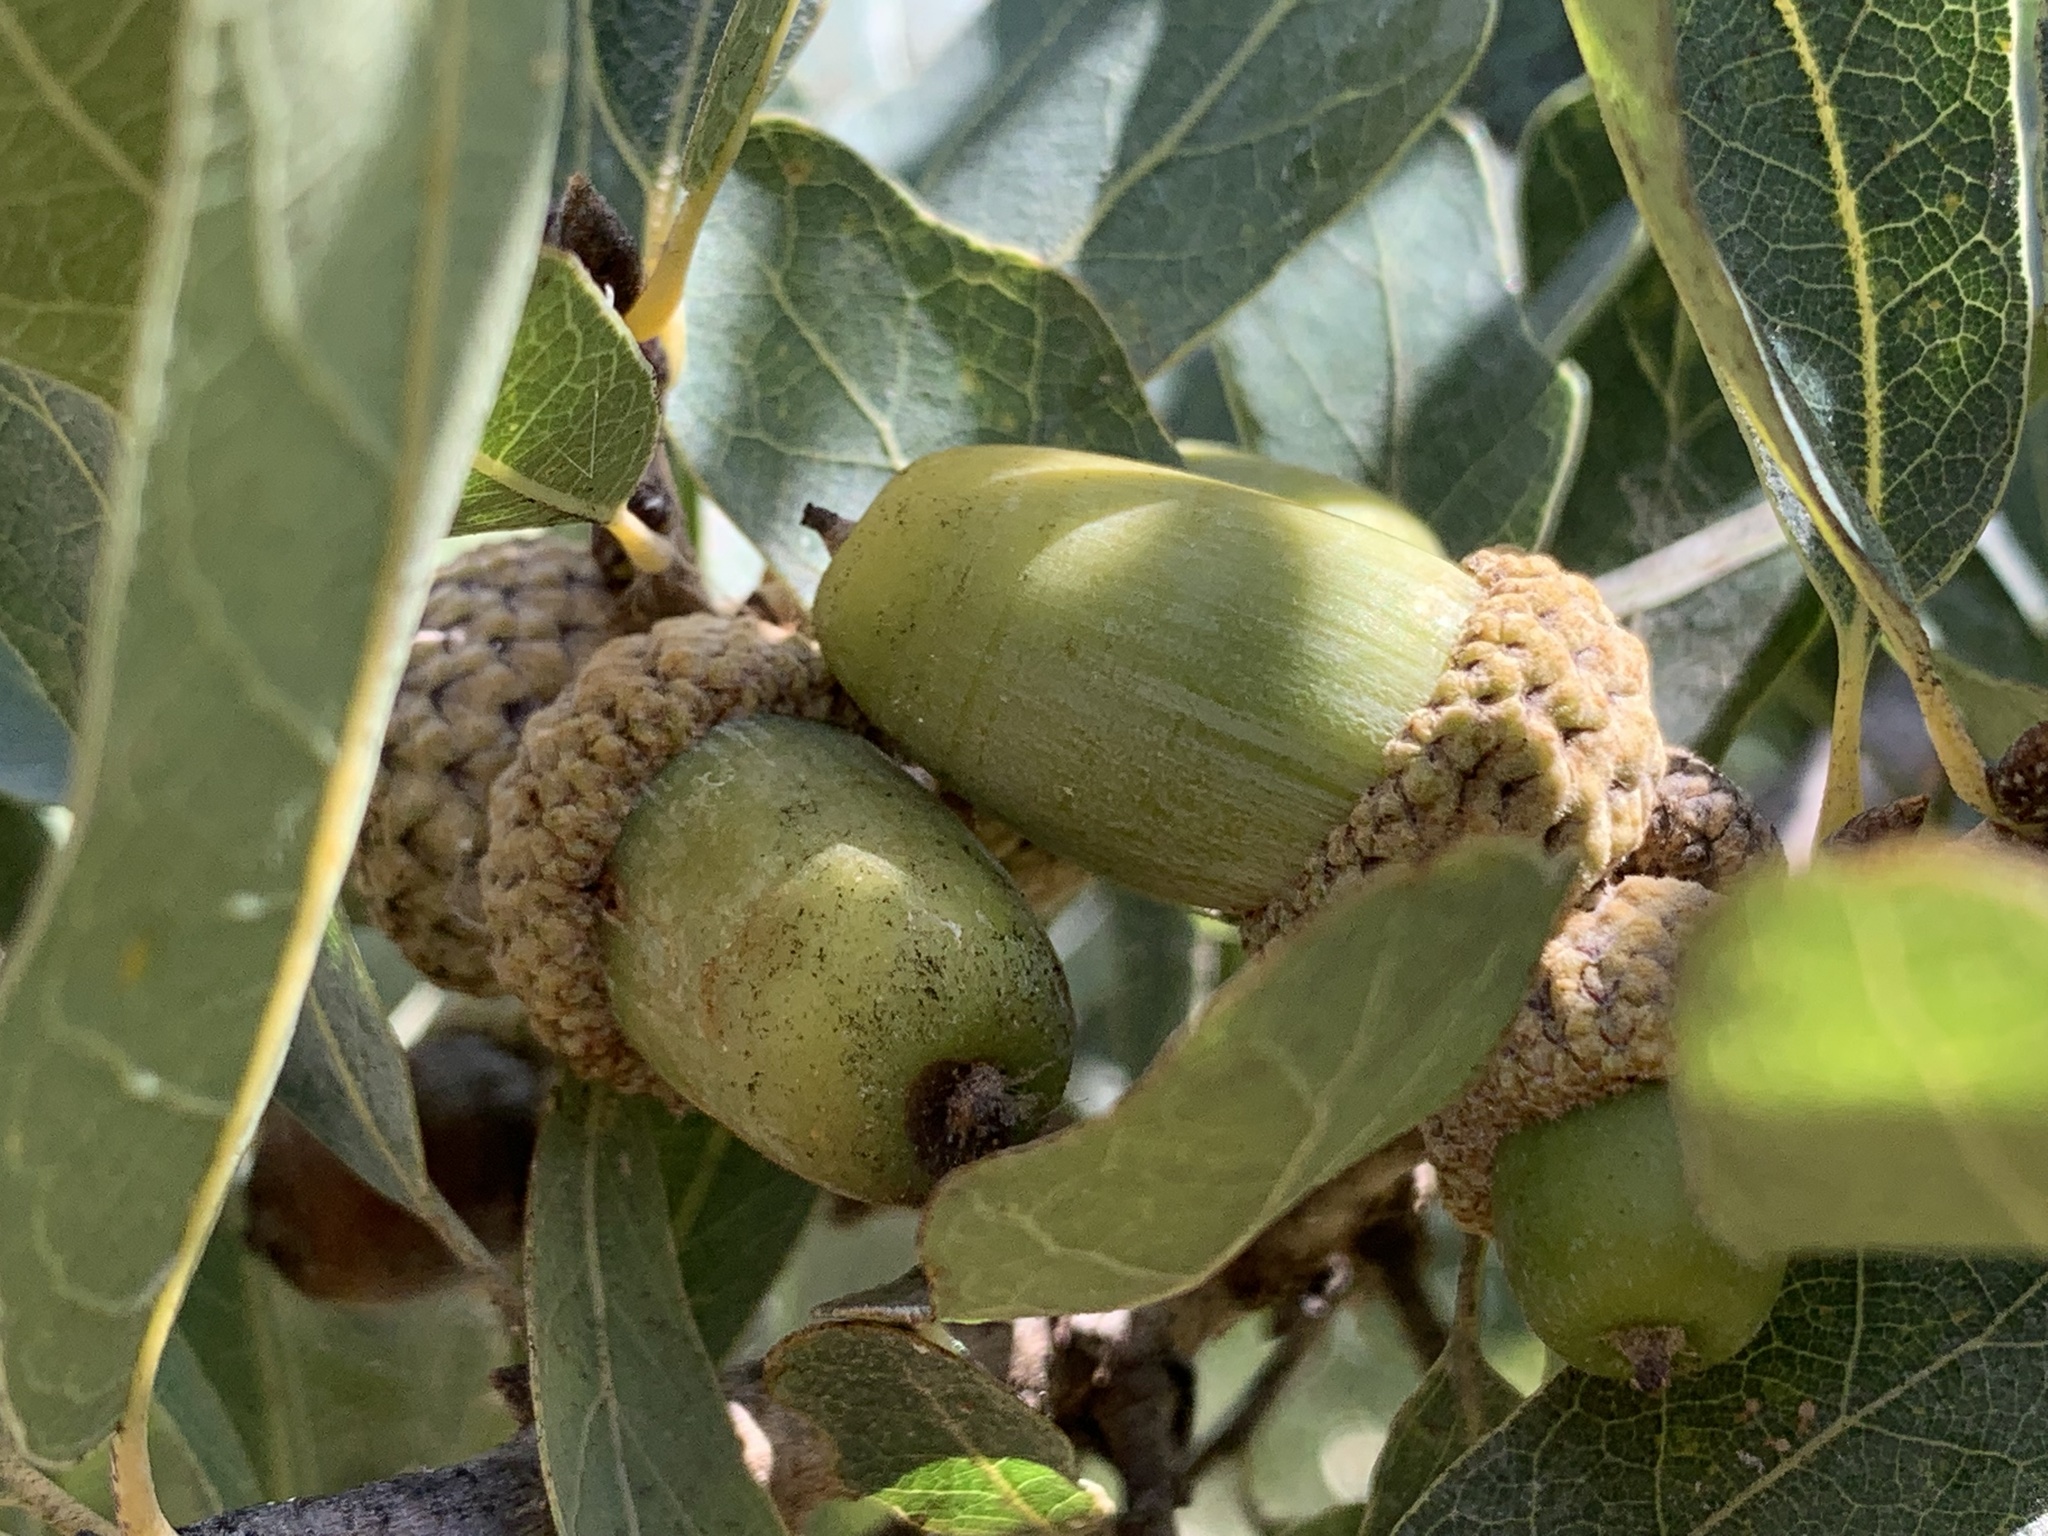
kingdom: Plantae
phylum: Tracheophyta
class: Magnoliopsida
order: Fagales
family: Fagaceae
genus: Quercus
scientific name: Quercus laceyi
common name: Lacey oak
